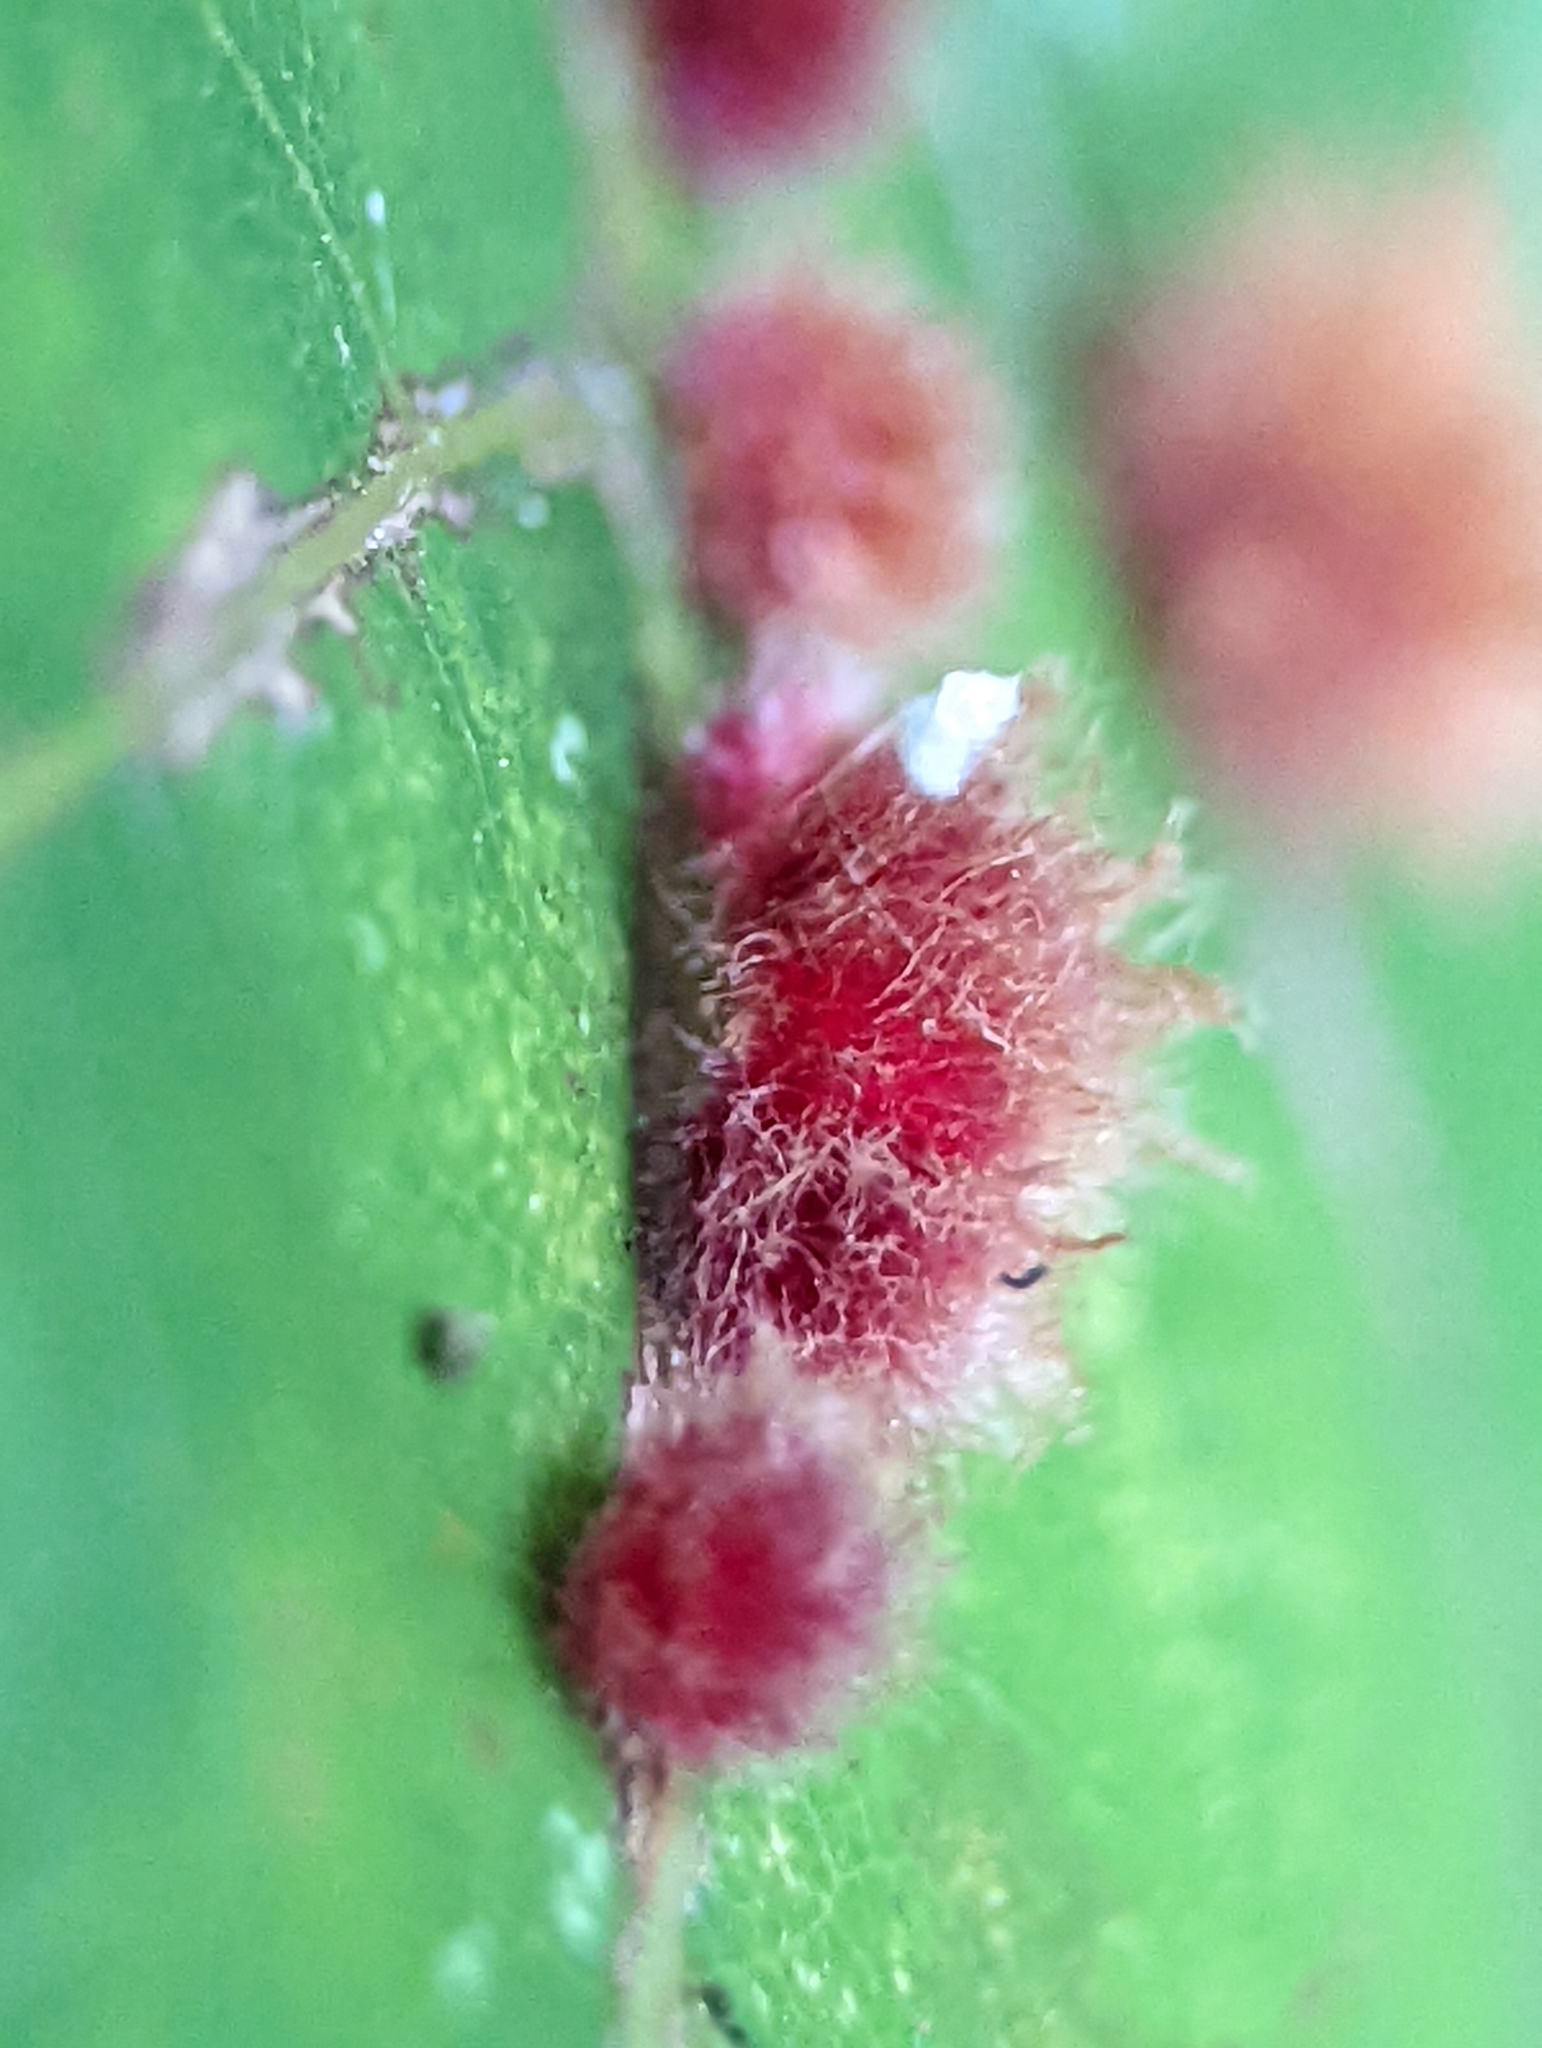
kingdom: Animalia
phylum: Arthropoda
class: Insecta
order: Hymenoptera
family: Cynipidae
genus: Callirhytis
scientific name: Callirhytis
